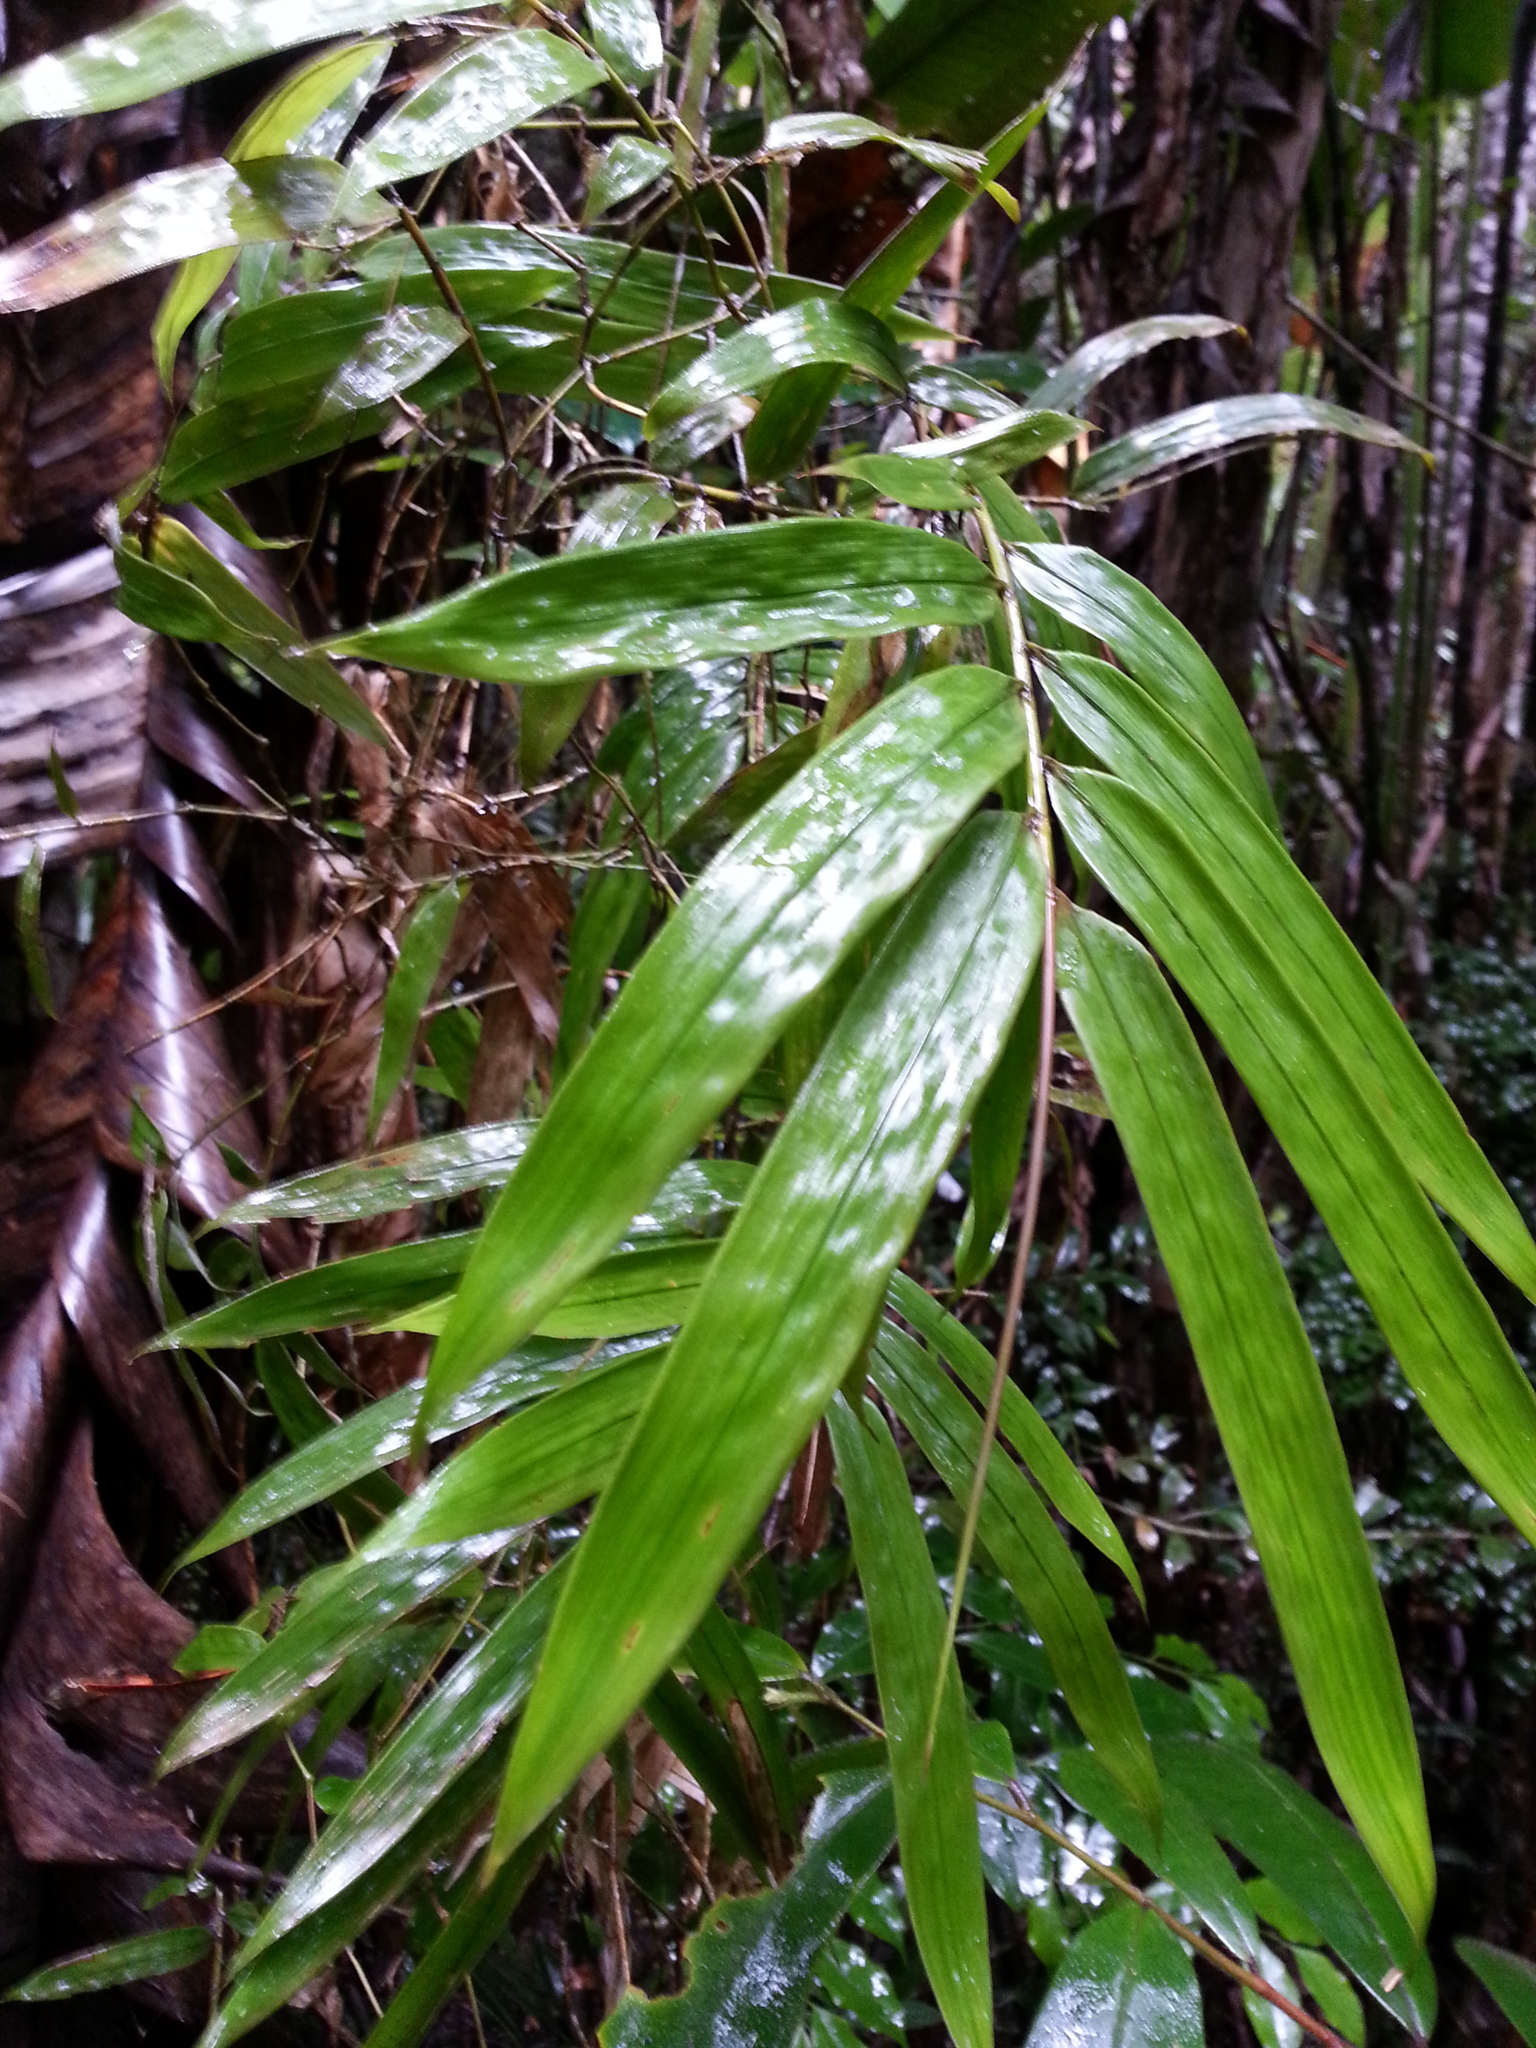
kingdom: Plantae
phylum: Tracheophyta
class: Liliopsida
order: Poales
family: Poaceae
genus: Sokinochloa
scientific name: Sokinochloa viguieri
